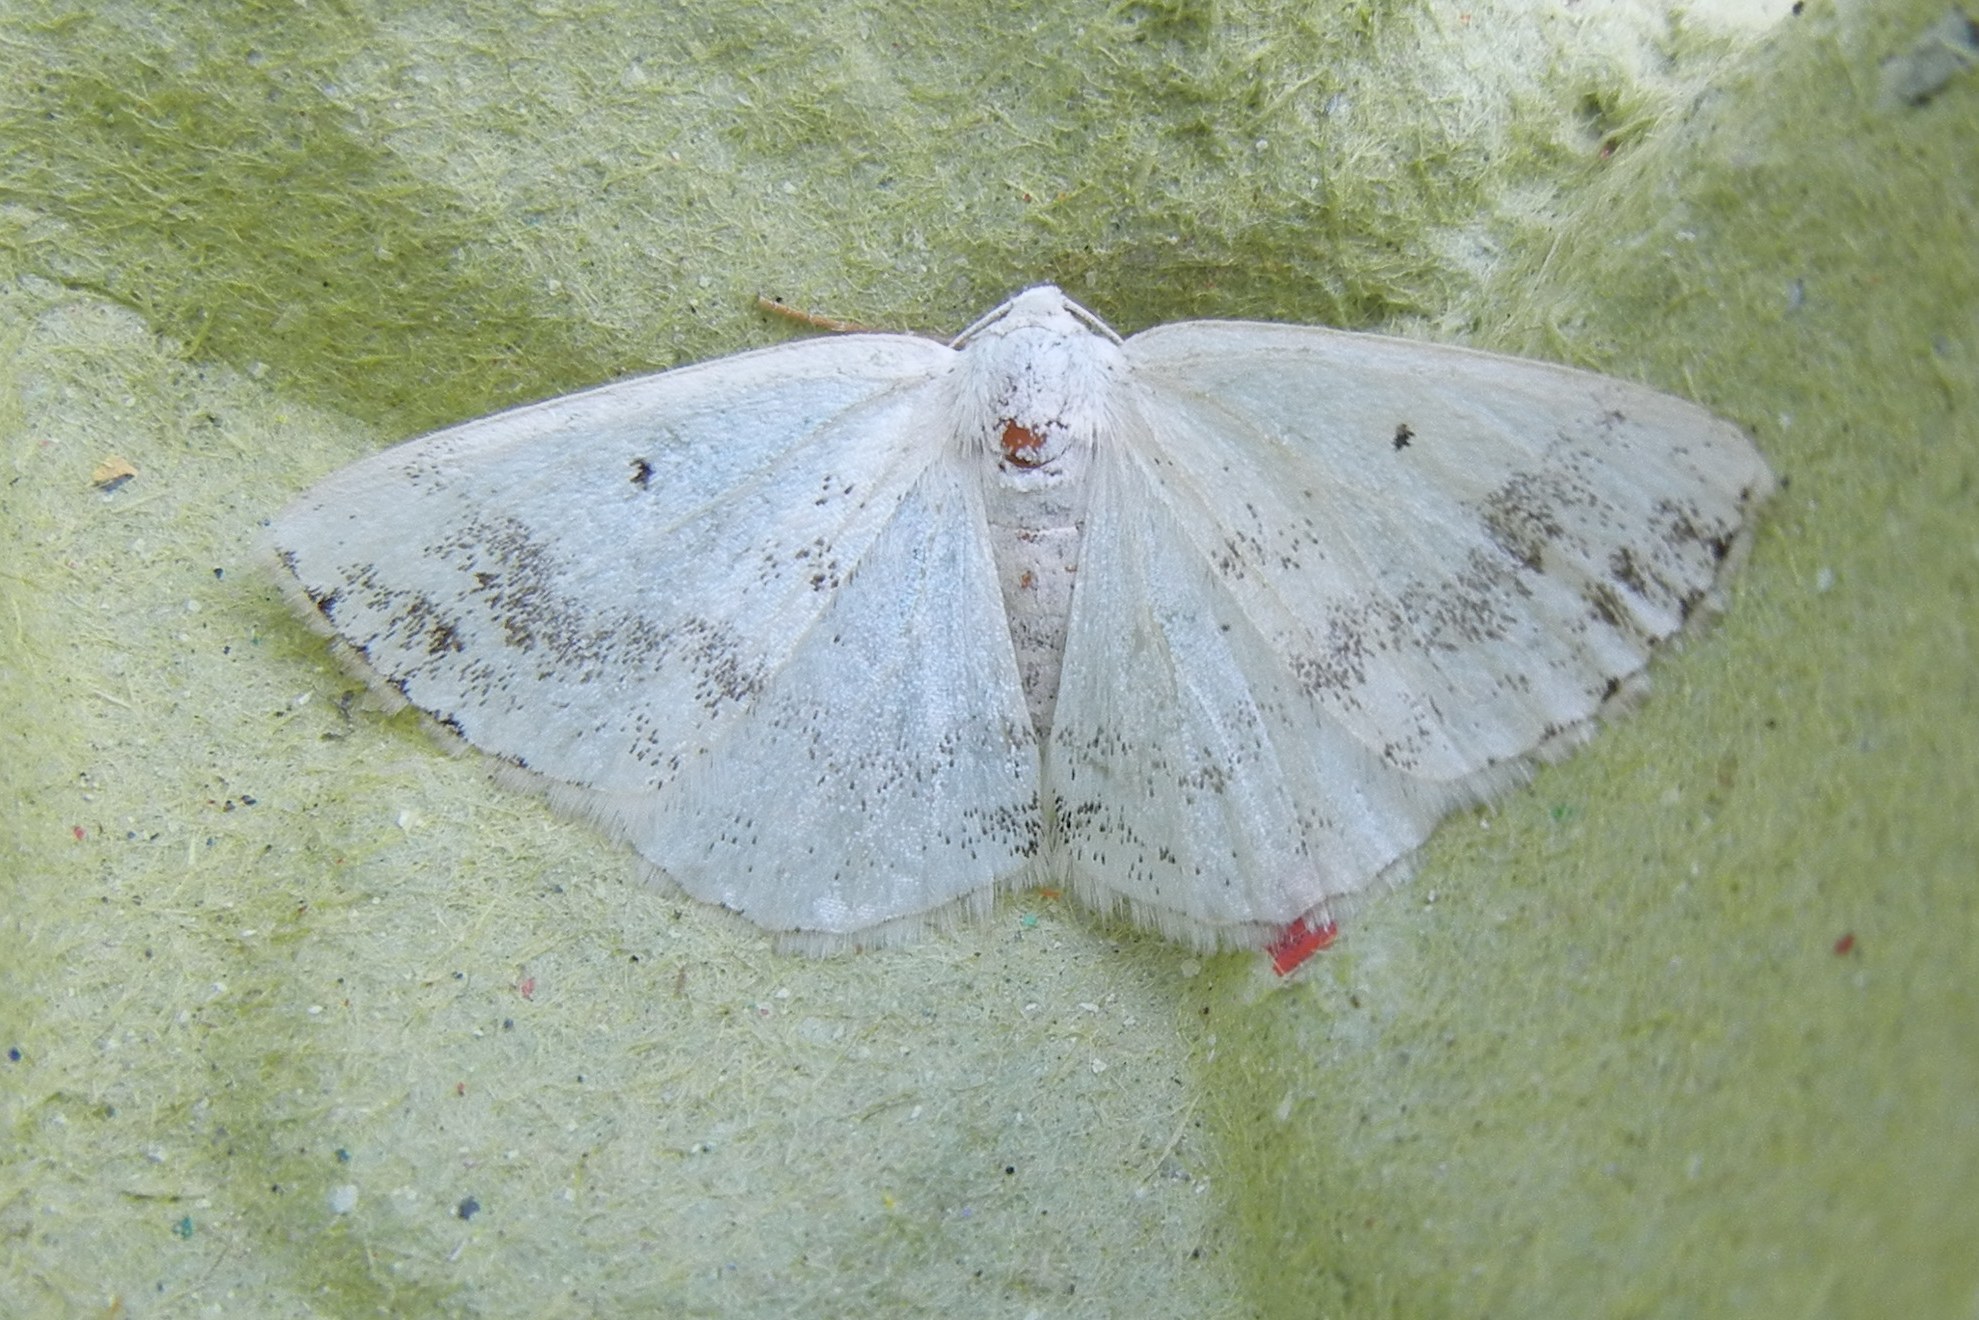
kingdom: Animalia
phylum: Arthropoda
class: Insecta
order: Lepidoptera
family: Geometridae
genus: Lomographa
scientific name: Lomographa temerata
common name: Clouded silver
